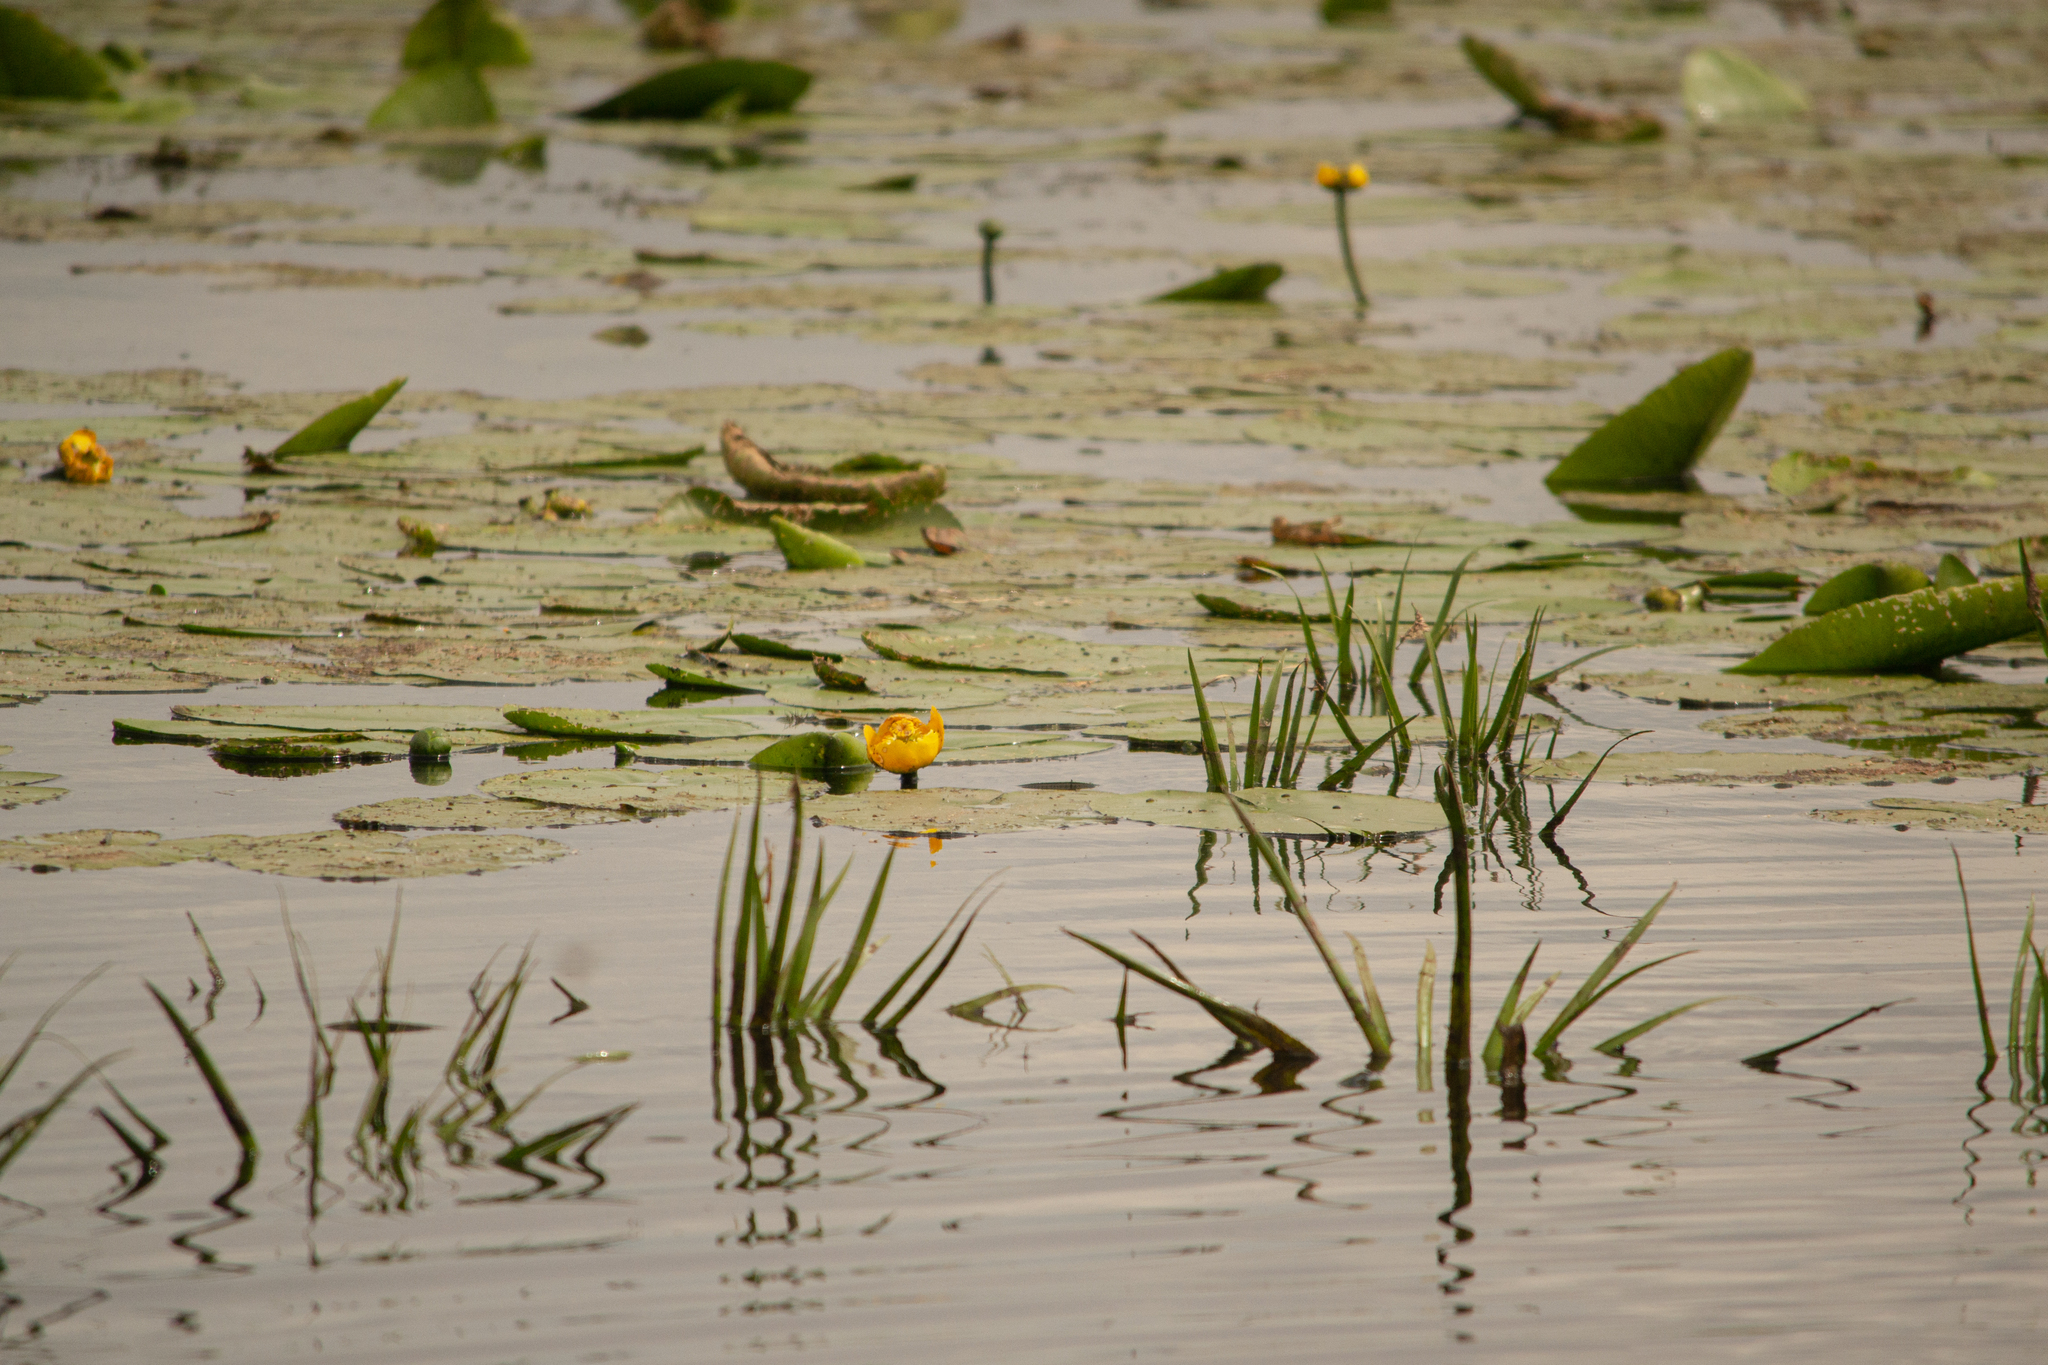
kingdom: Plantae
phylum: Tracheophyta
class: Magnoliopsida
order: Nymphaeales
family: Nymphaeaceae
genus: Nuphar
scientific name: Nuphar lutea
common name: Yellow water-lily
